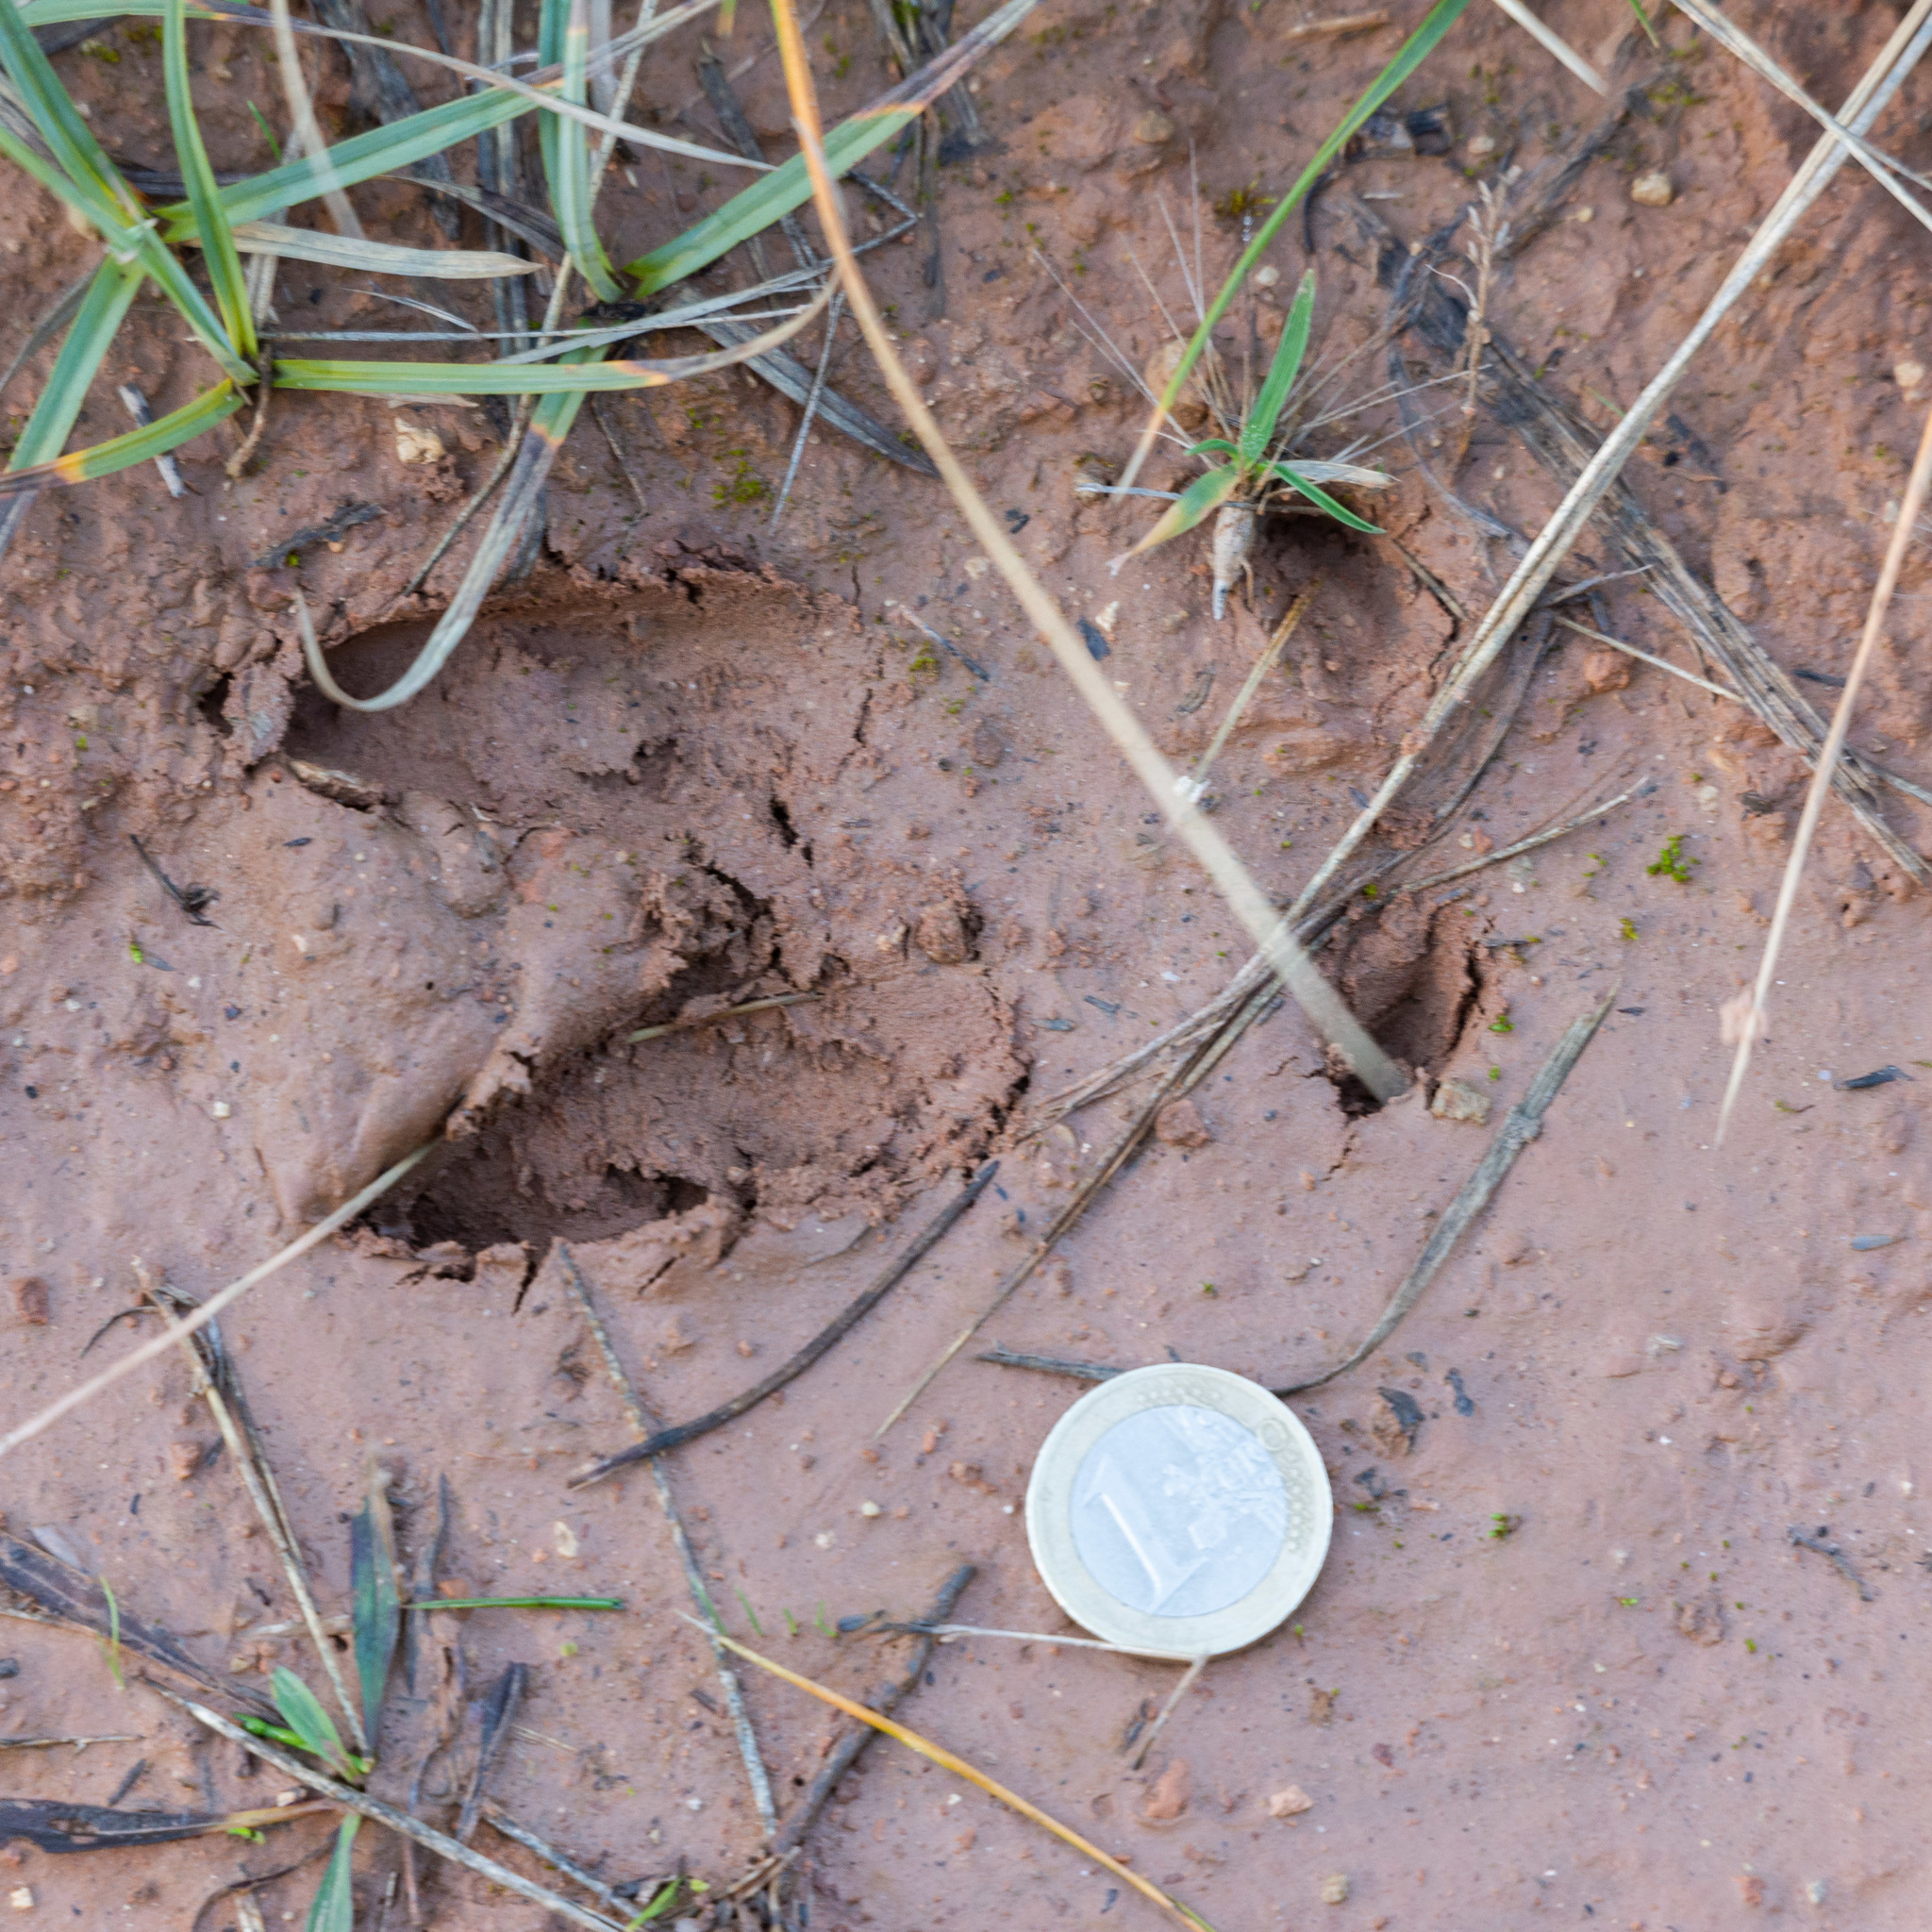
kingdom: Animalia
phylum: Chordata
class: Mammalia
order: Artiodactyla
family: Cervidae
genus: Capreolus
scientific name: Capreolus capreolus
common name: Western roe deer
